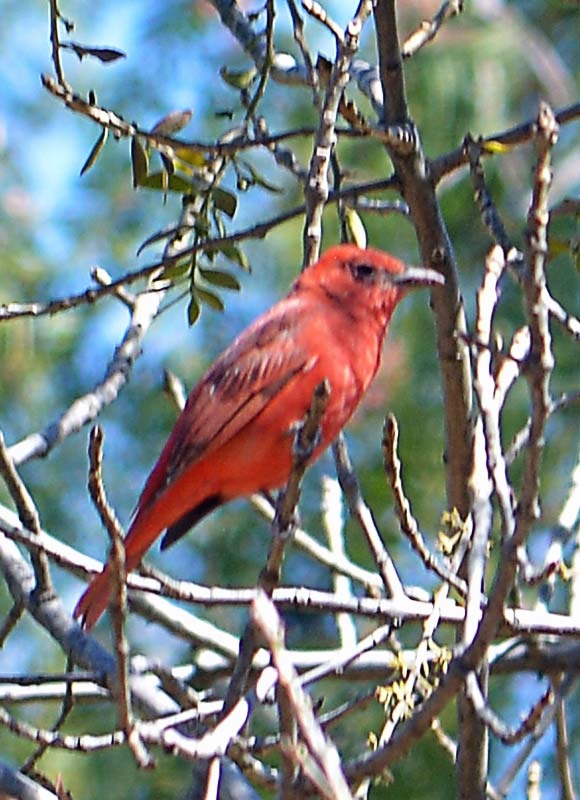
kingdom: Animalia
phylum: Chordata
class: Aves
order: Passeriformes
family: Cardinalidae
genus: Piranga
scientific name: Piranga flava
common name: Red tanager
